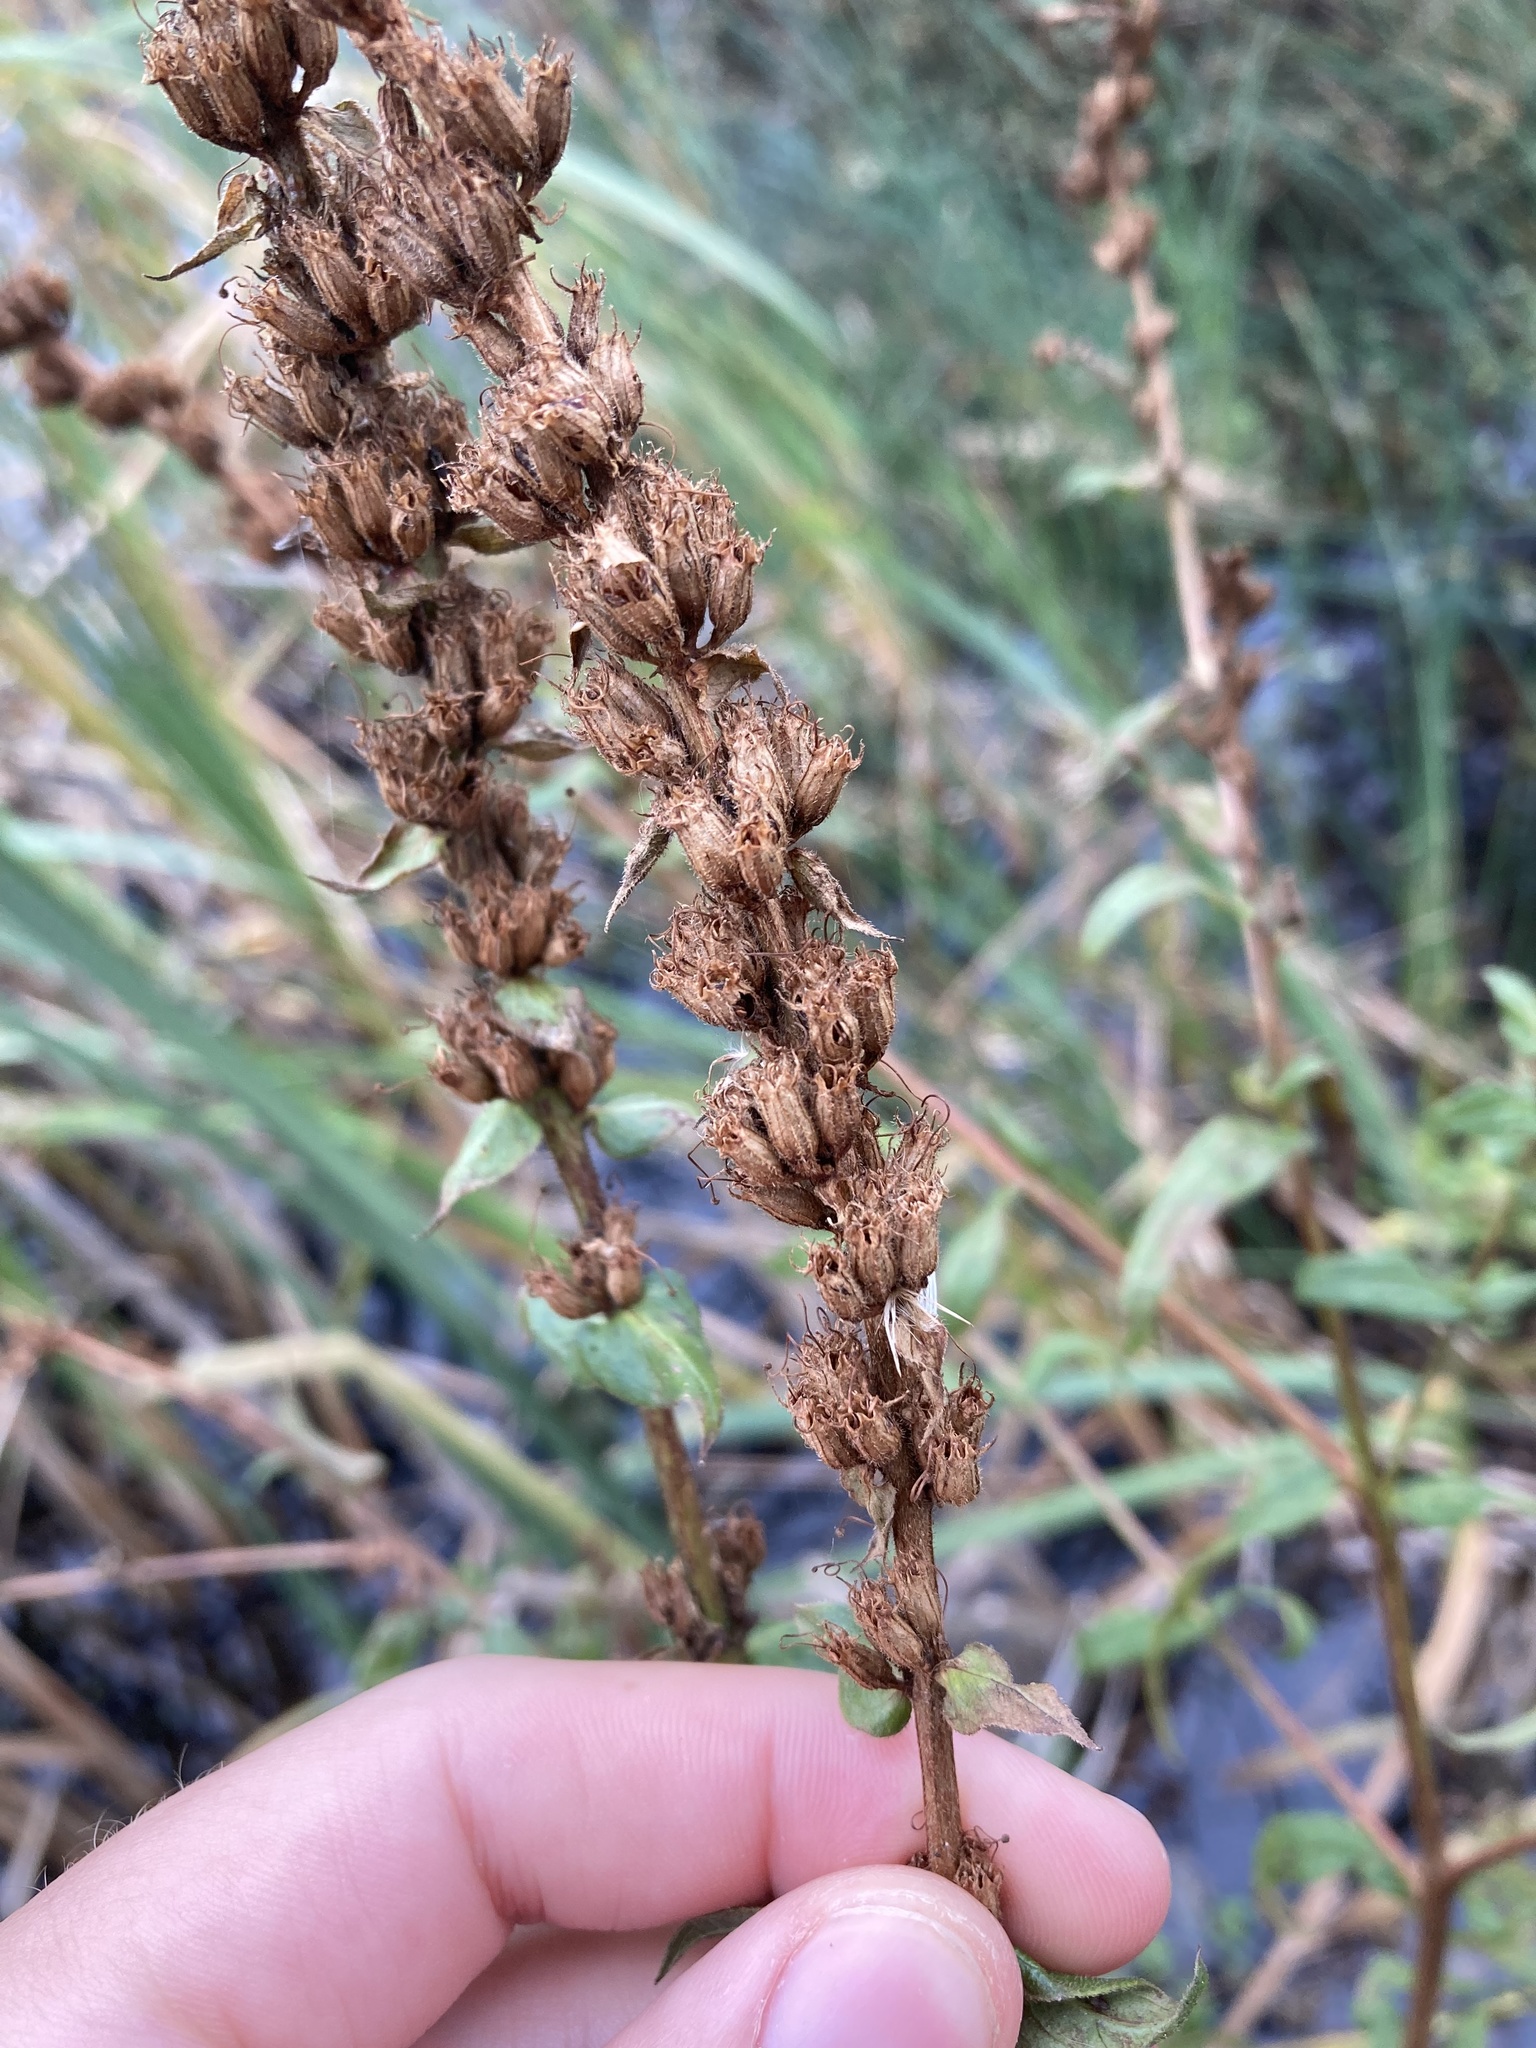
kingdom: Plantae
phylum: Tracheophyta
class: Magnoliopsida
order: Myrtales
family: Lythraceae
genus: Lythrum
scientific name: Lythrum salicaria
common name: Purple loosestrife
